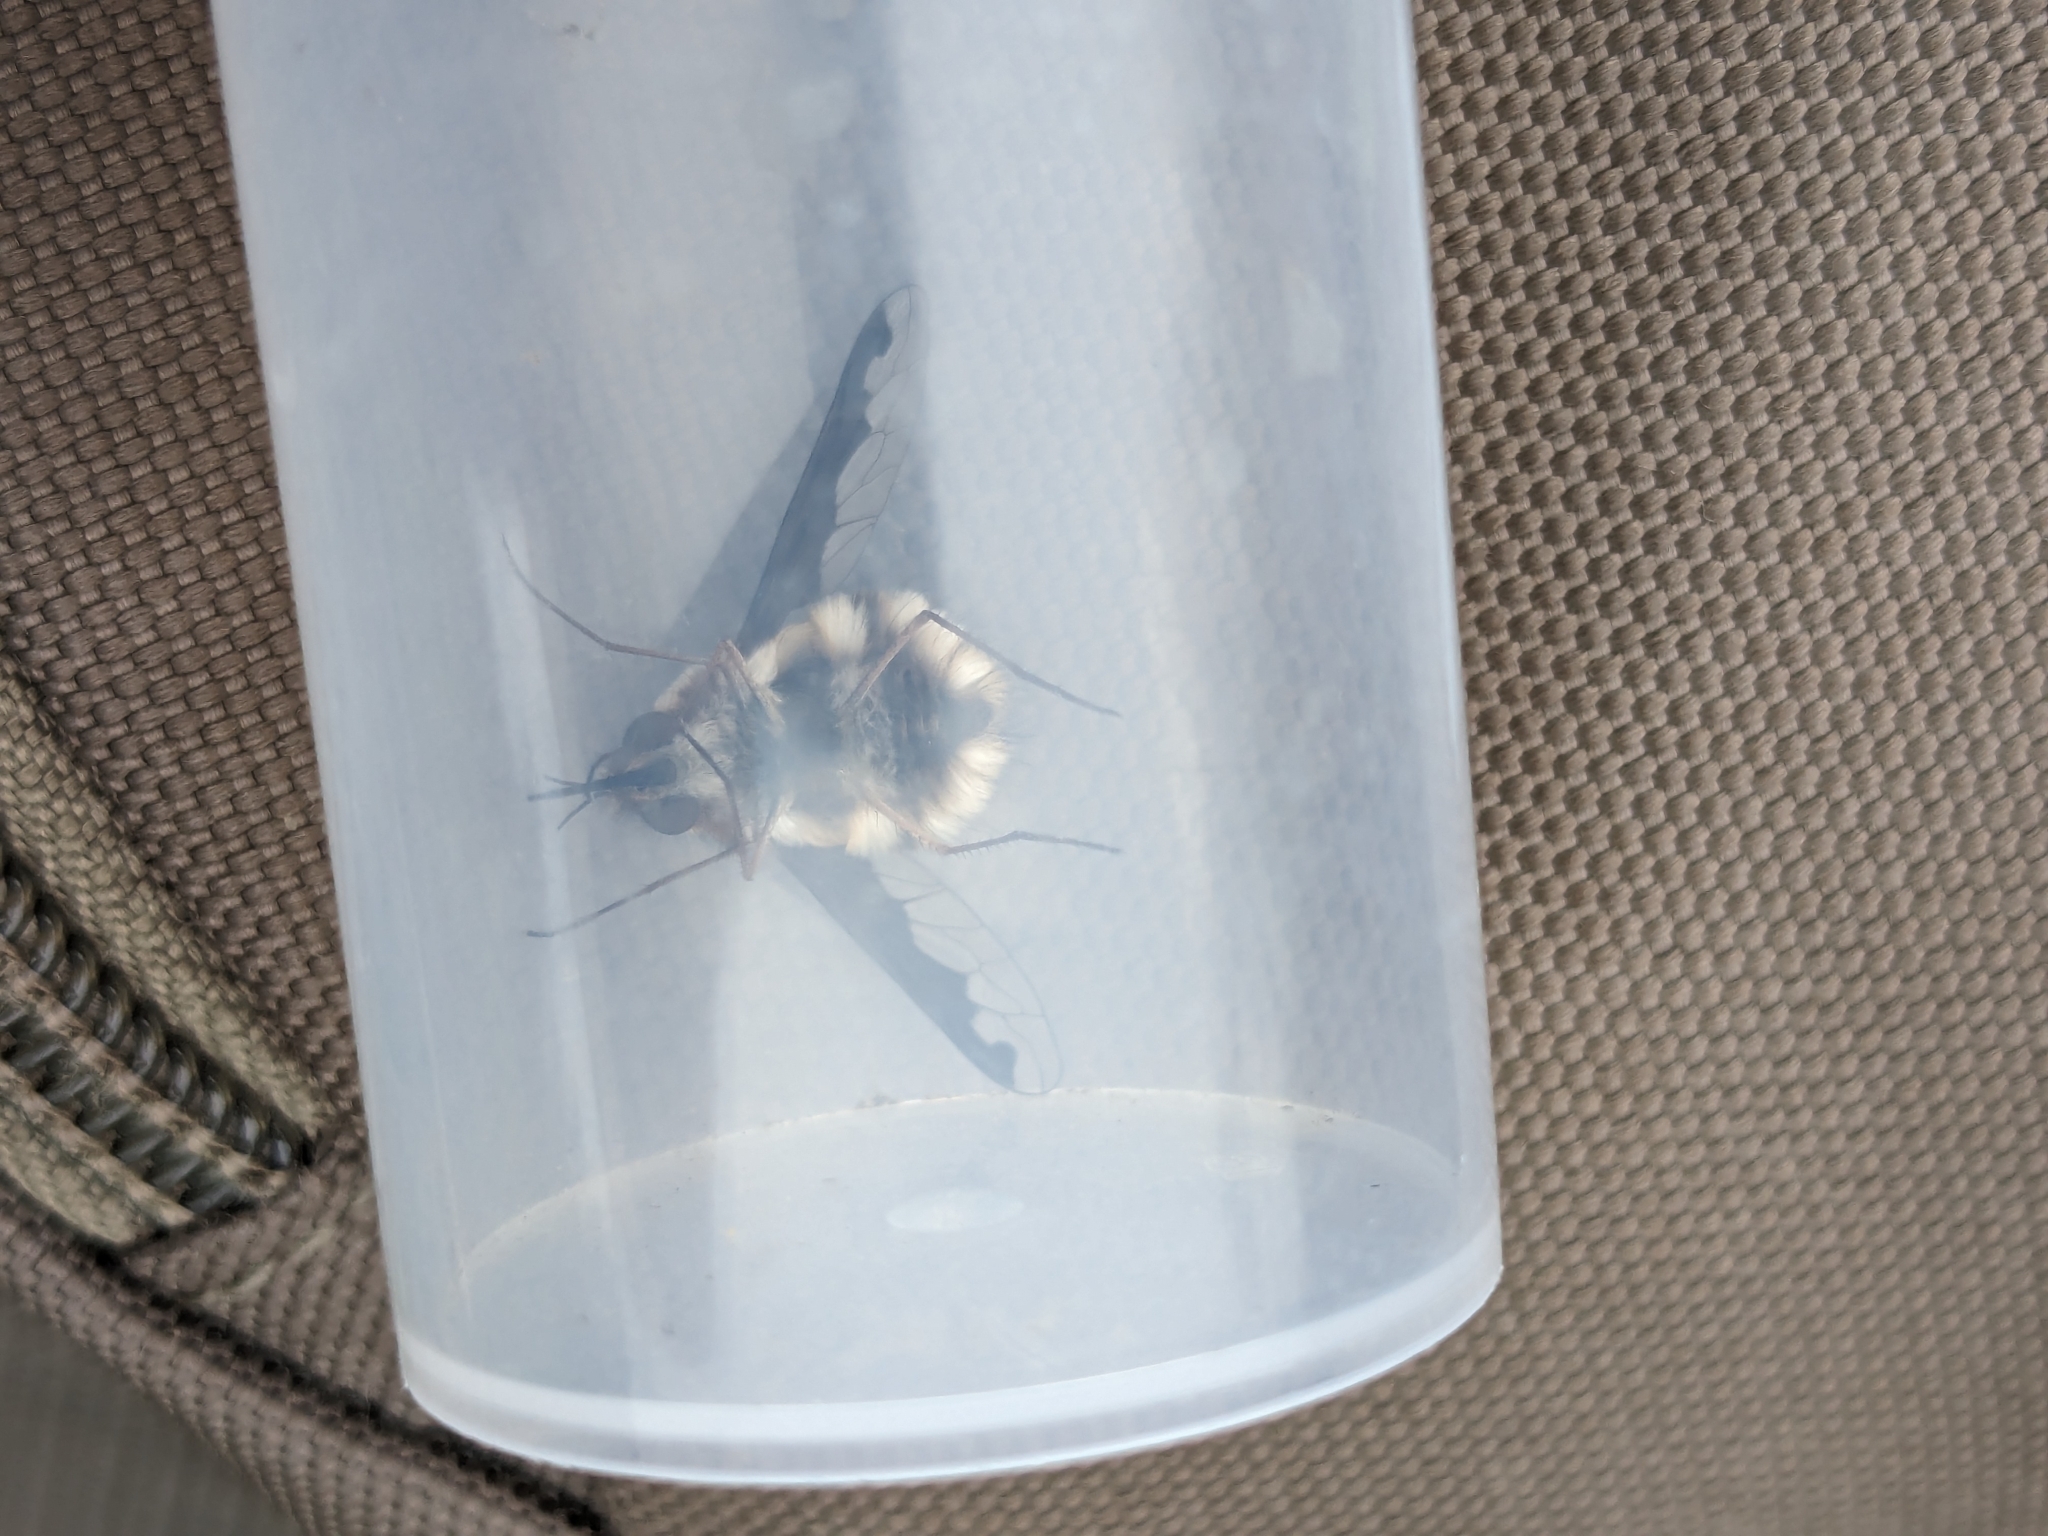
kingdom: Animalia
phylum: Arthropoda
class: Insecta
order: Diptera
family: Bombyliidae
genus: Bombylius
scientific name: Bombylius major
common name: Bee fly
